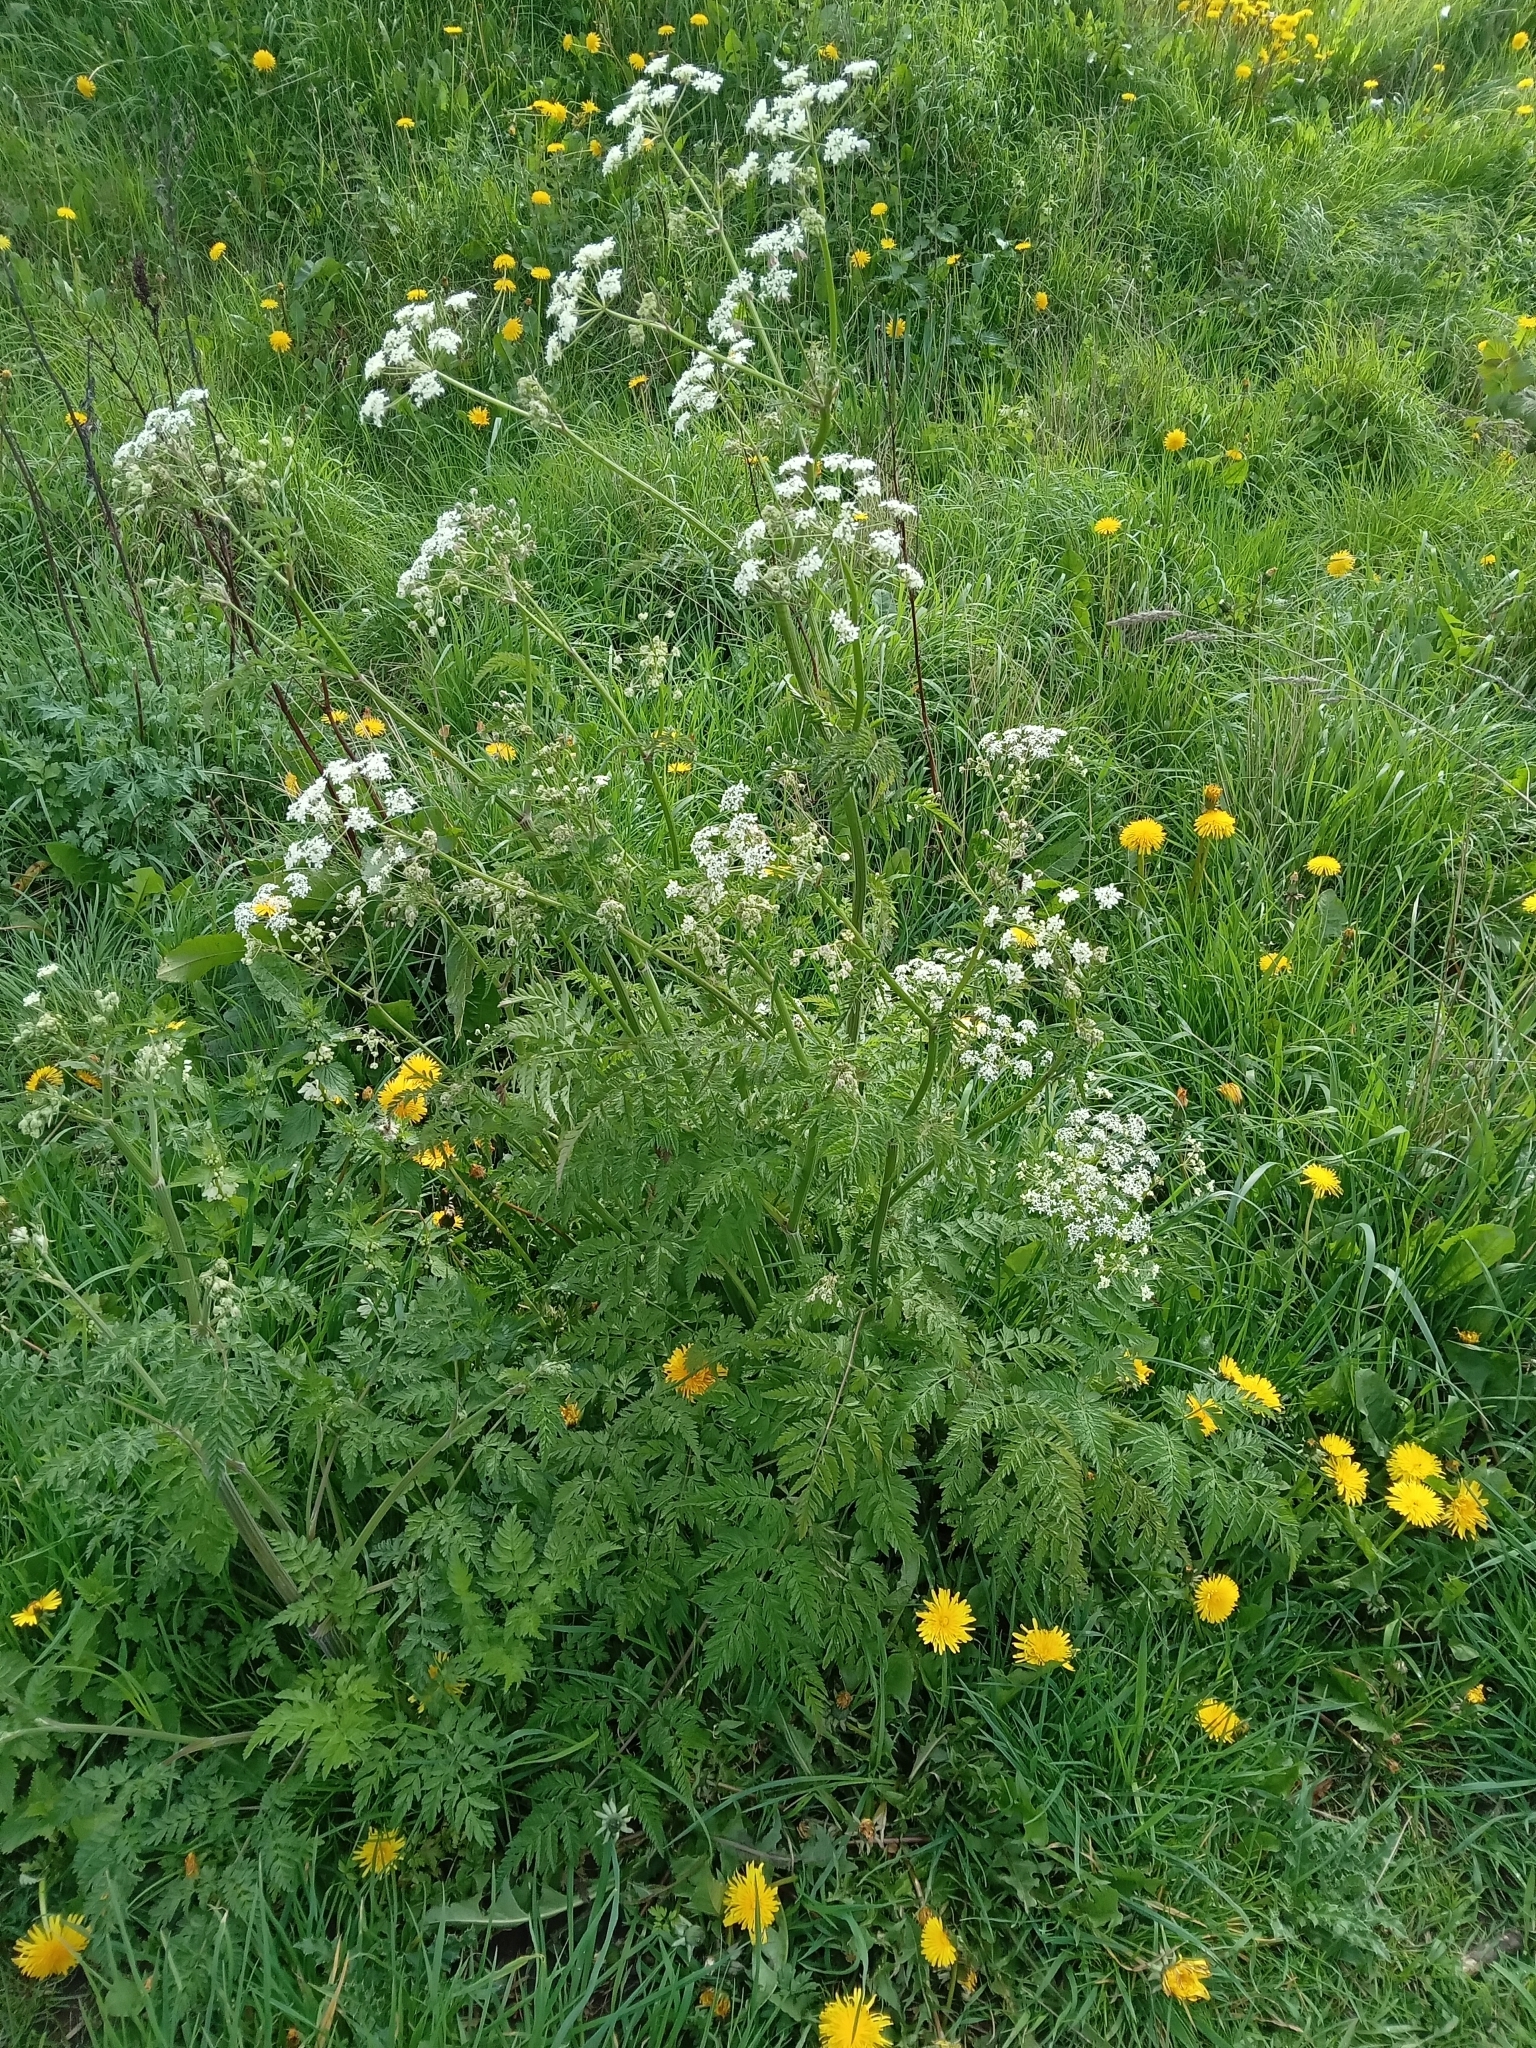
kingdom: Plantae
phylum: Tracheophyta
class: Magnoliopsida
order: Apiales
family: Apiaceae
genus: Anthriscus
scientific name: Anthriscus sylvestris
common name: Cow parsley
